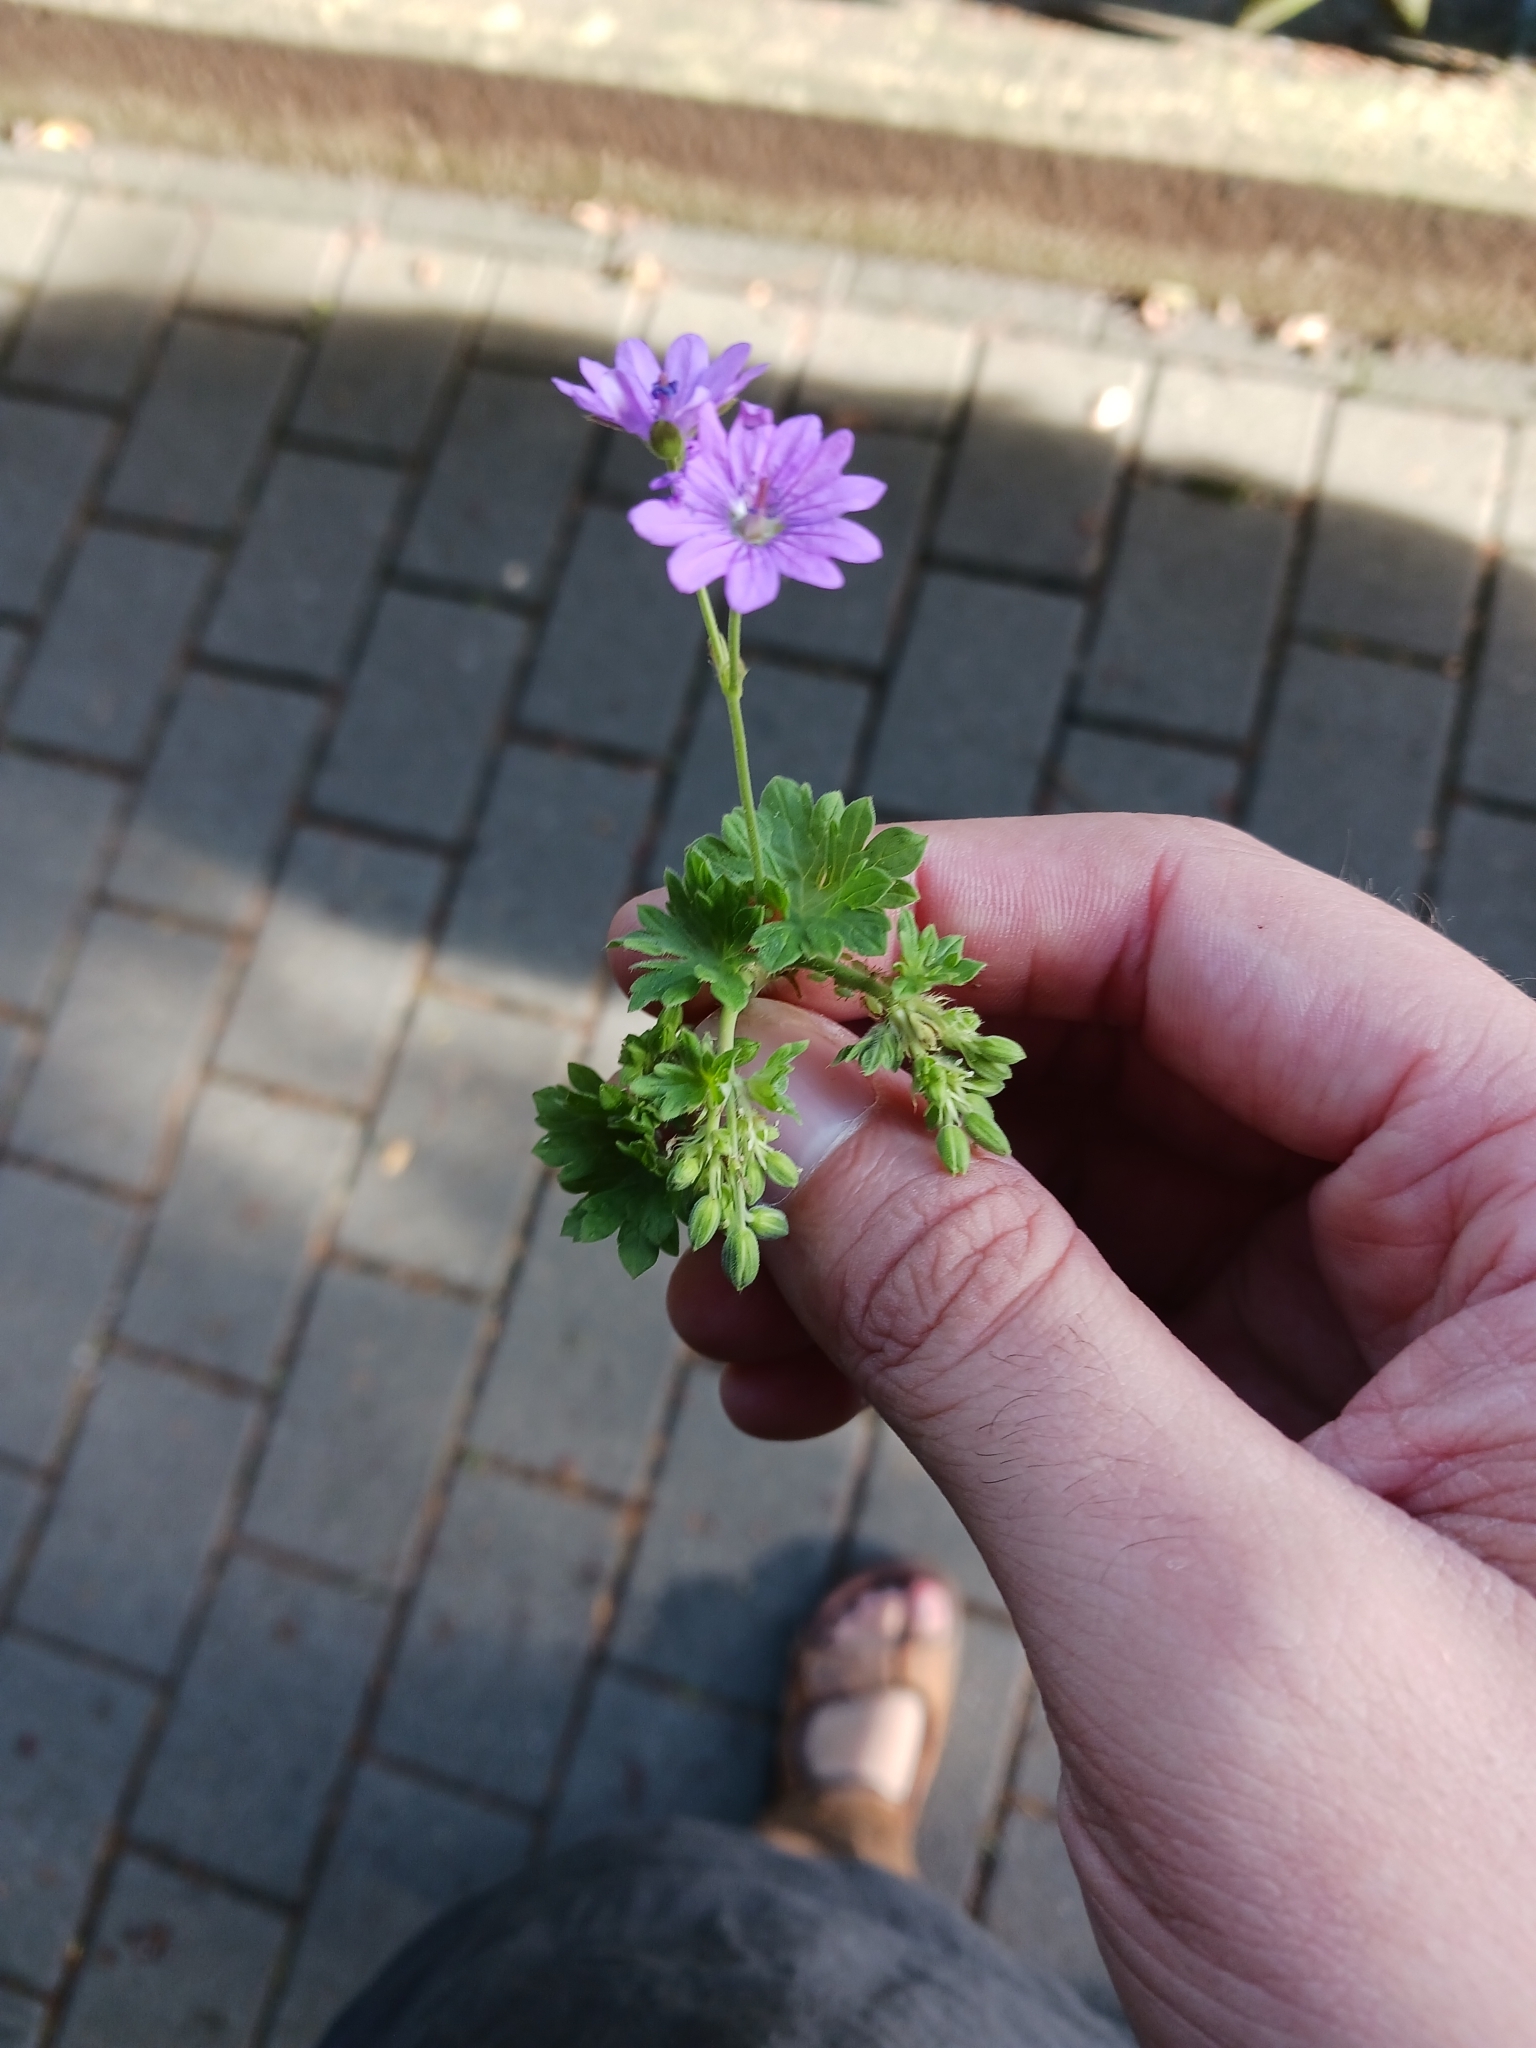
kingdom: Plantae
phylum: Tracheophyta
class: Magnoliopsida
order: Geraniales
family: Geraniaceae
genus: Geranium
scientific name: Geranium pyrenaicum
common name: Hedgerow crane's-bill
